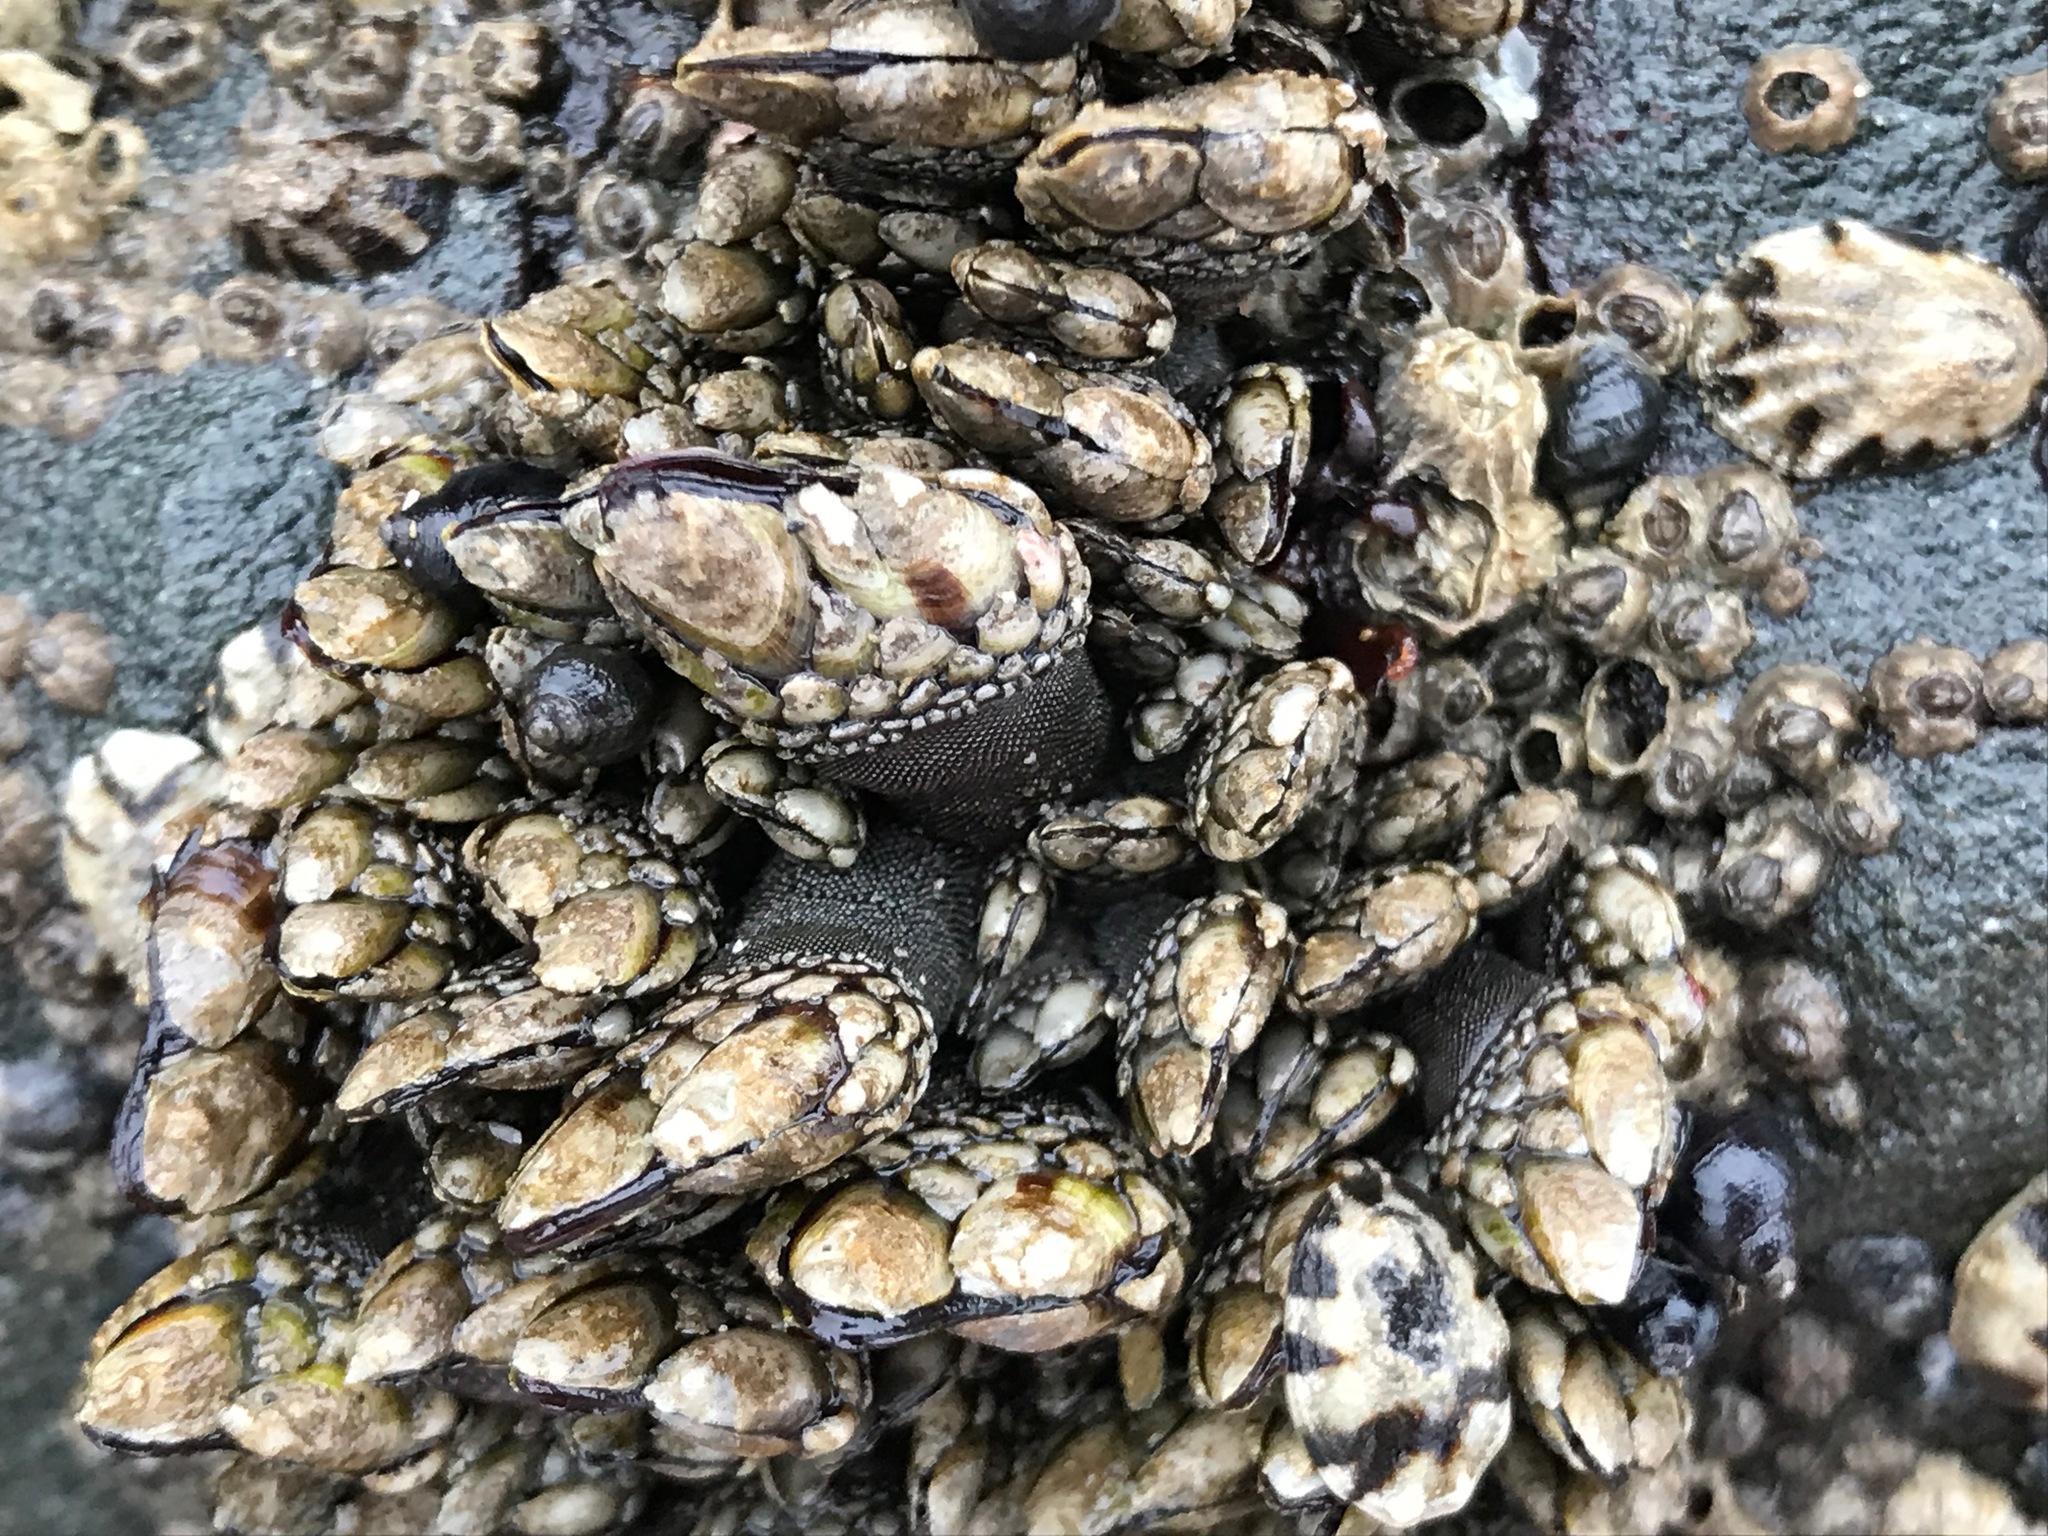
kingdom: Animalia
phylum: Arthropoda
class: Maxillopoda
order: Pedunculata
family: Pollicipedidae
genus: Pollicipes
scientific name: Pollicipes polymerus
